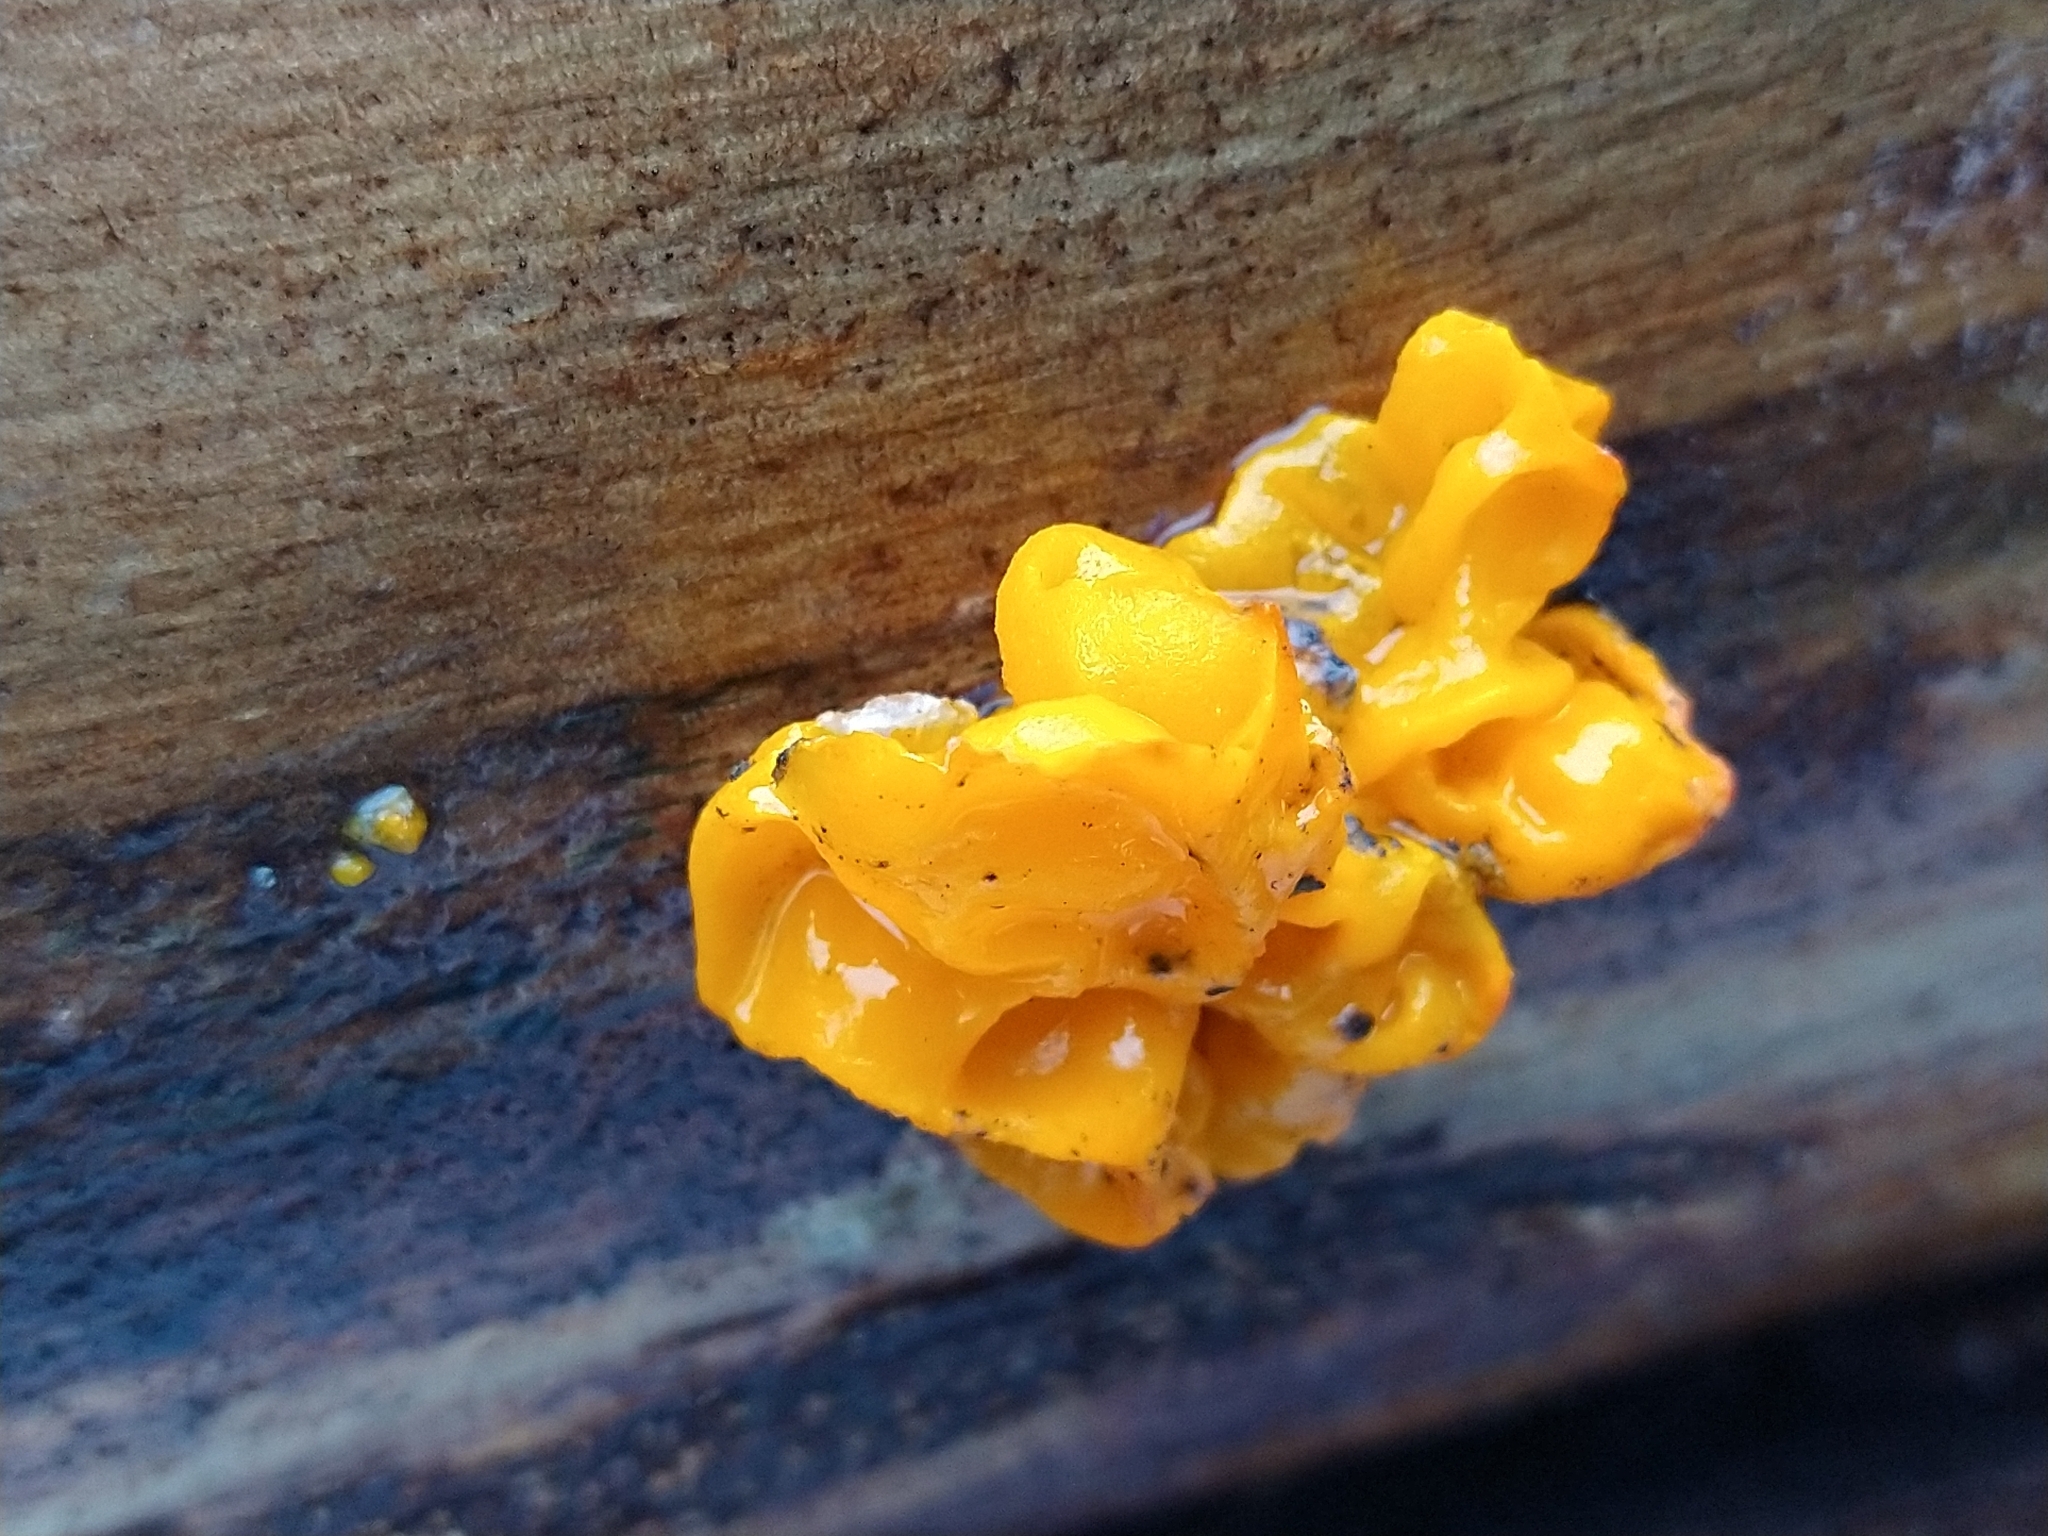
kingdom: Fungi
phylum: Basidiomycota
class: Tremellomycetes
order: Tremellales
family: Tremellaceae
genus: Tremella
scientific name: Tremella mesenterica
